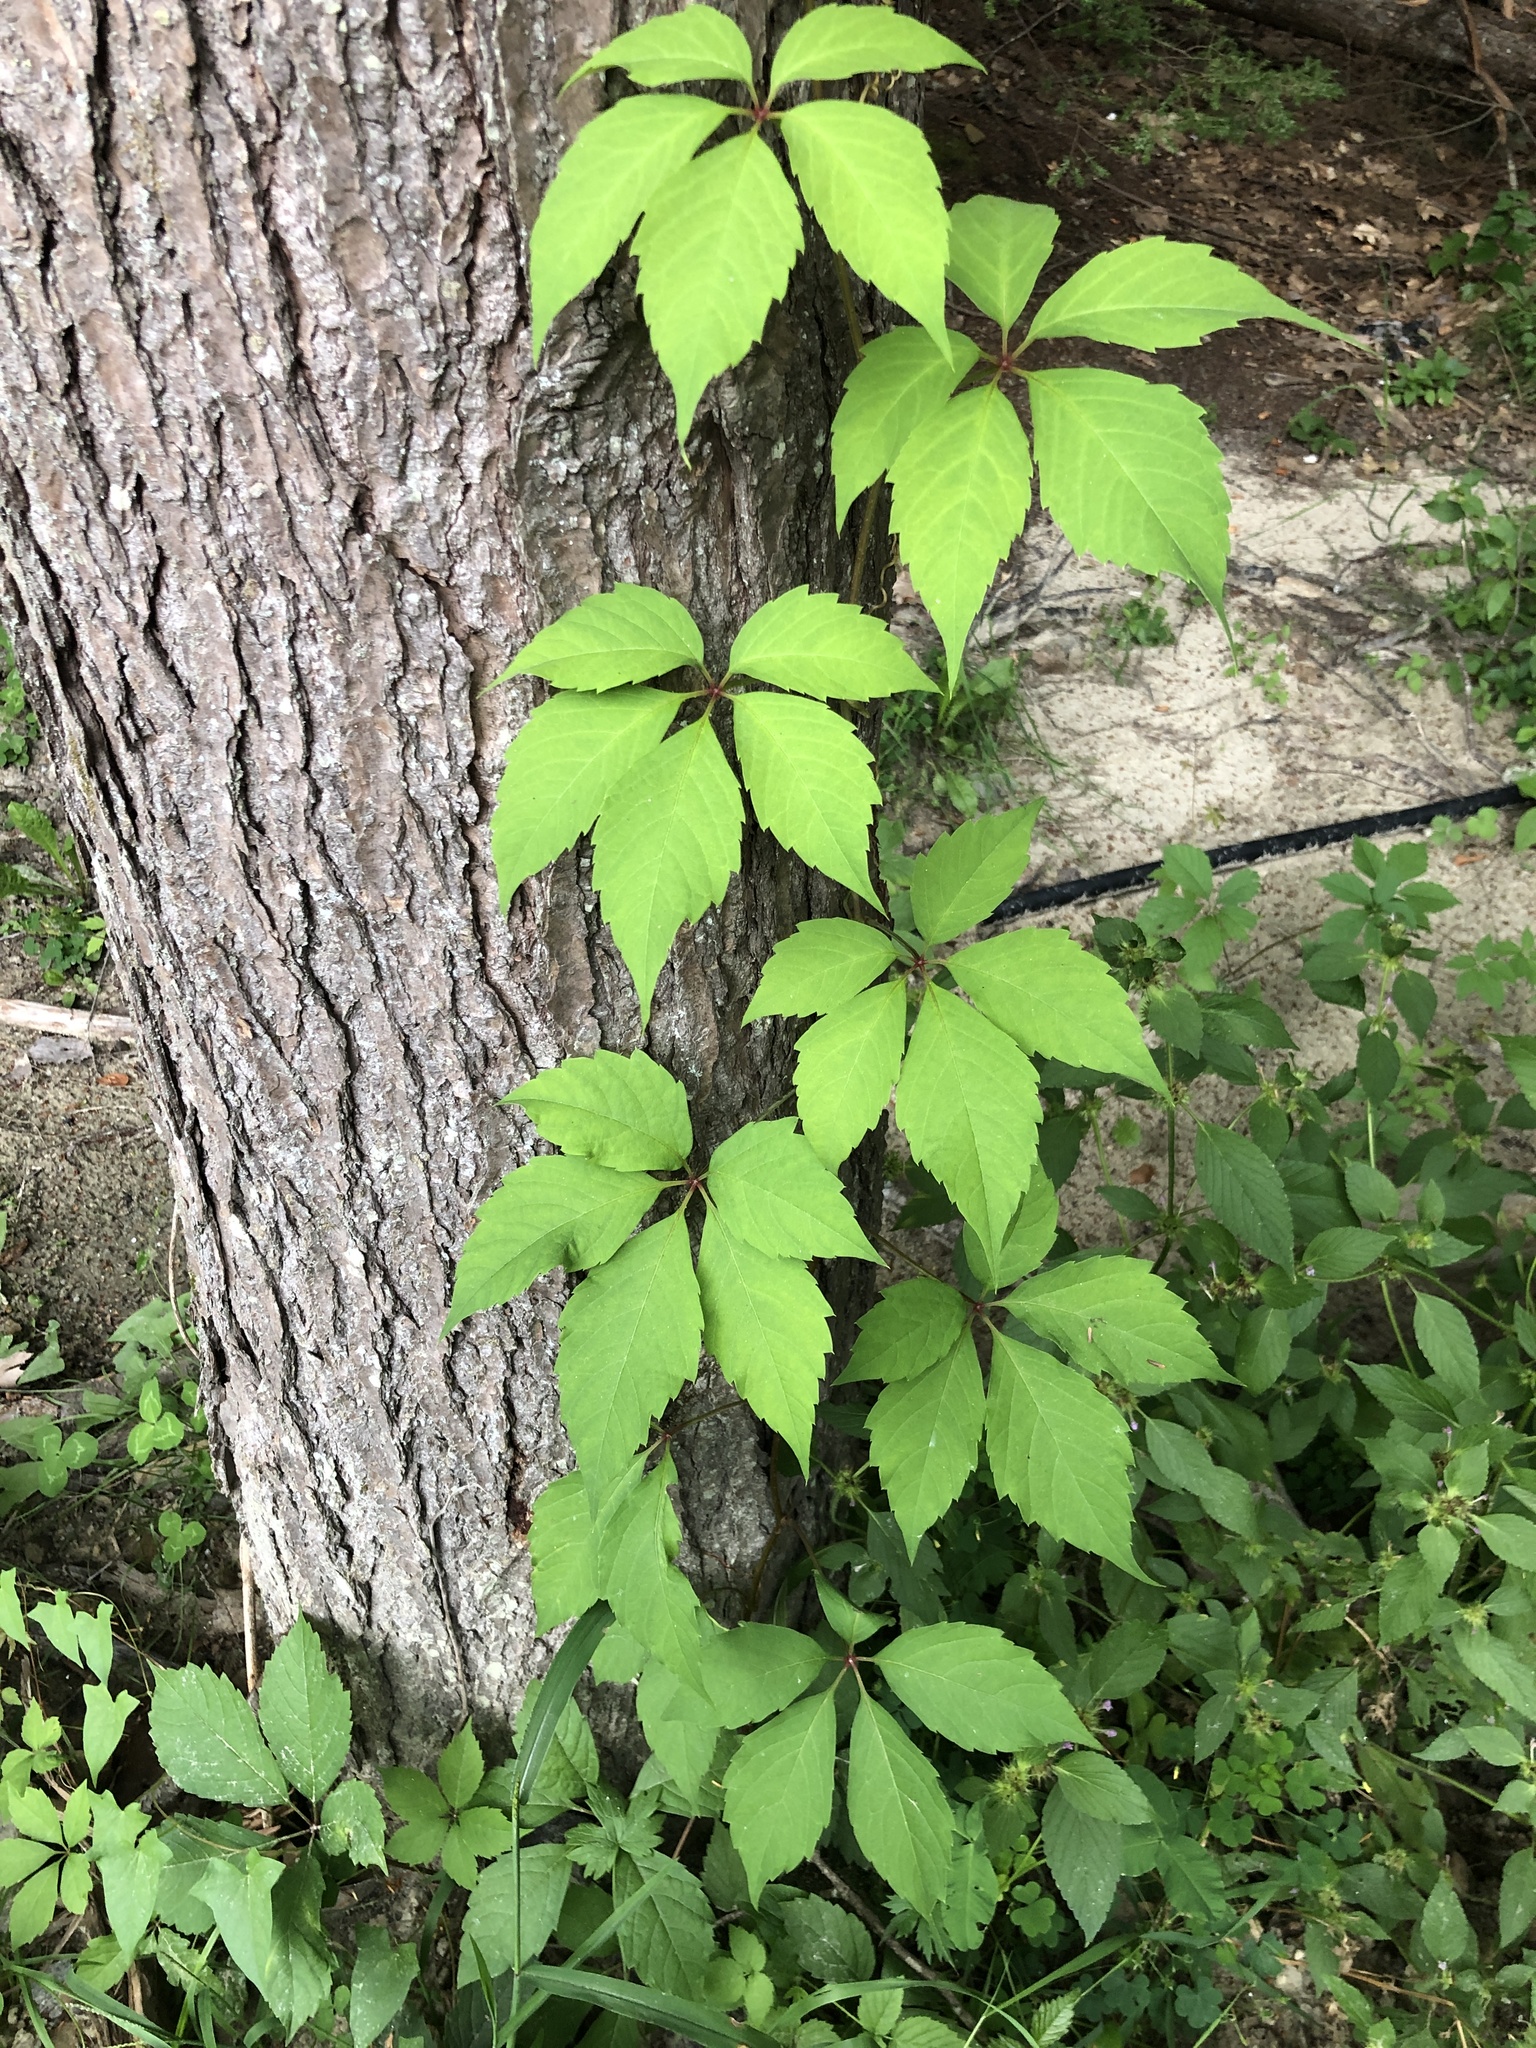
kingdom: Plantae
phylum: Tracheophyta
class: Magnoliopsida
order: Vitales
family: Vitaceae
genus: Parthenocissus
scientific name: Parthenocissus quinquefolia
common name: Virginia-creeper
